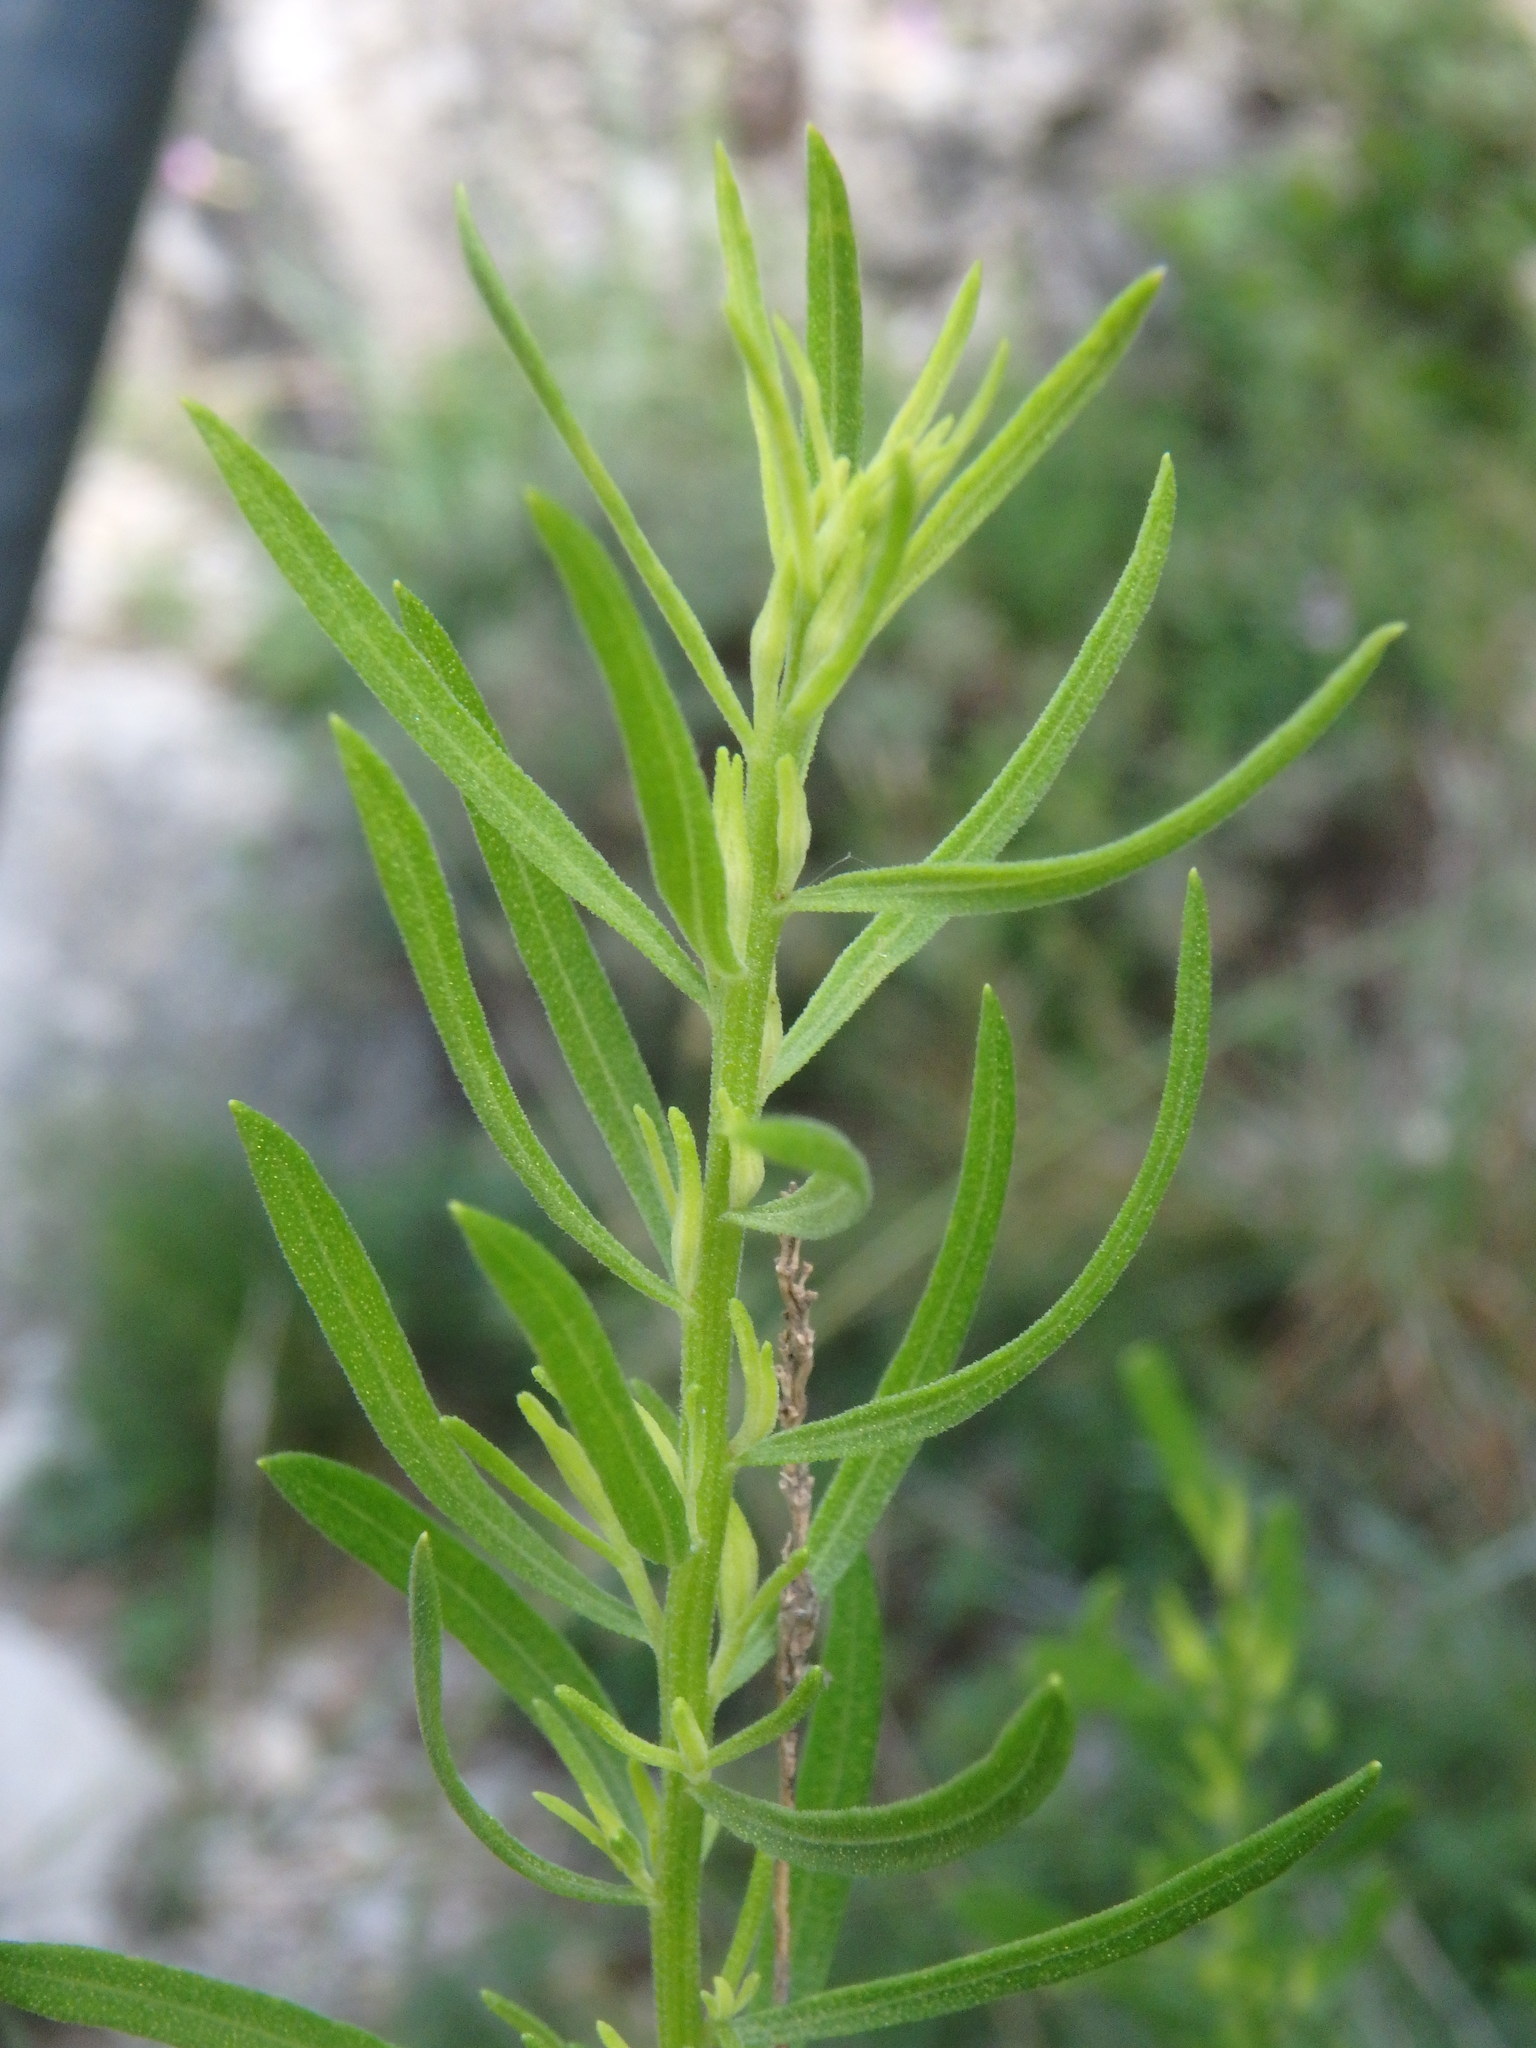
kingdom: Plantae
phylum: Tracheophyta
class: Magnoliopsida
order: Asterales
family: Asteraceae
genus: Galatella
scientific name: Galatella sedifolia
